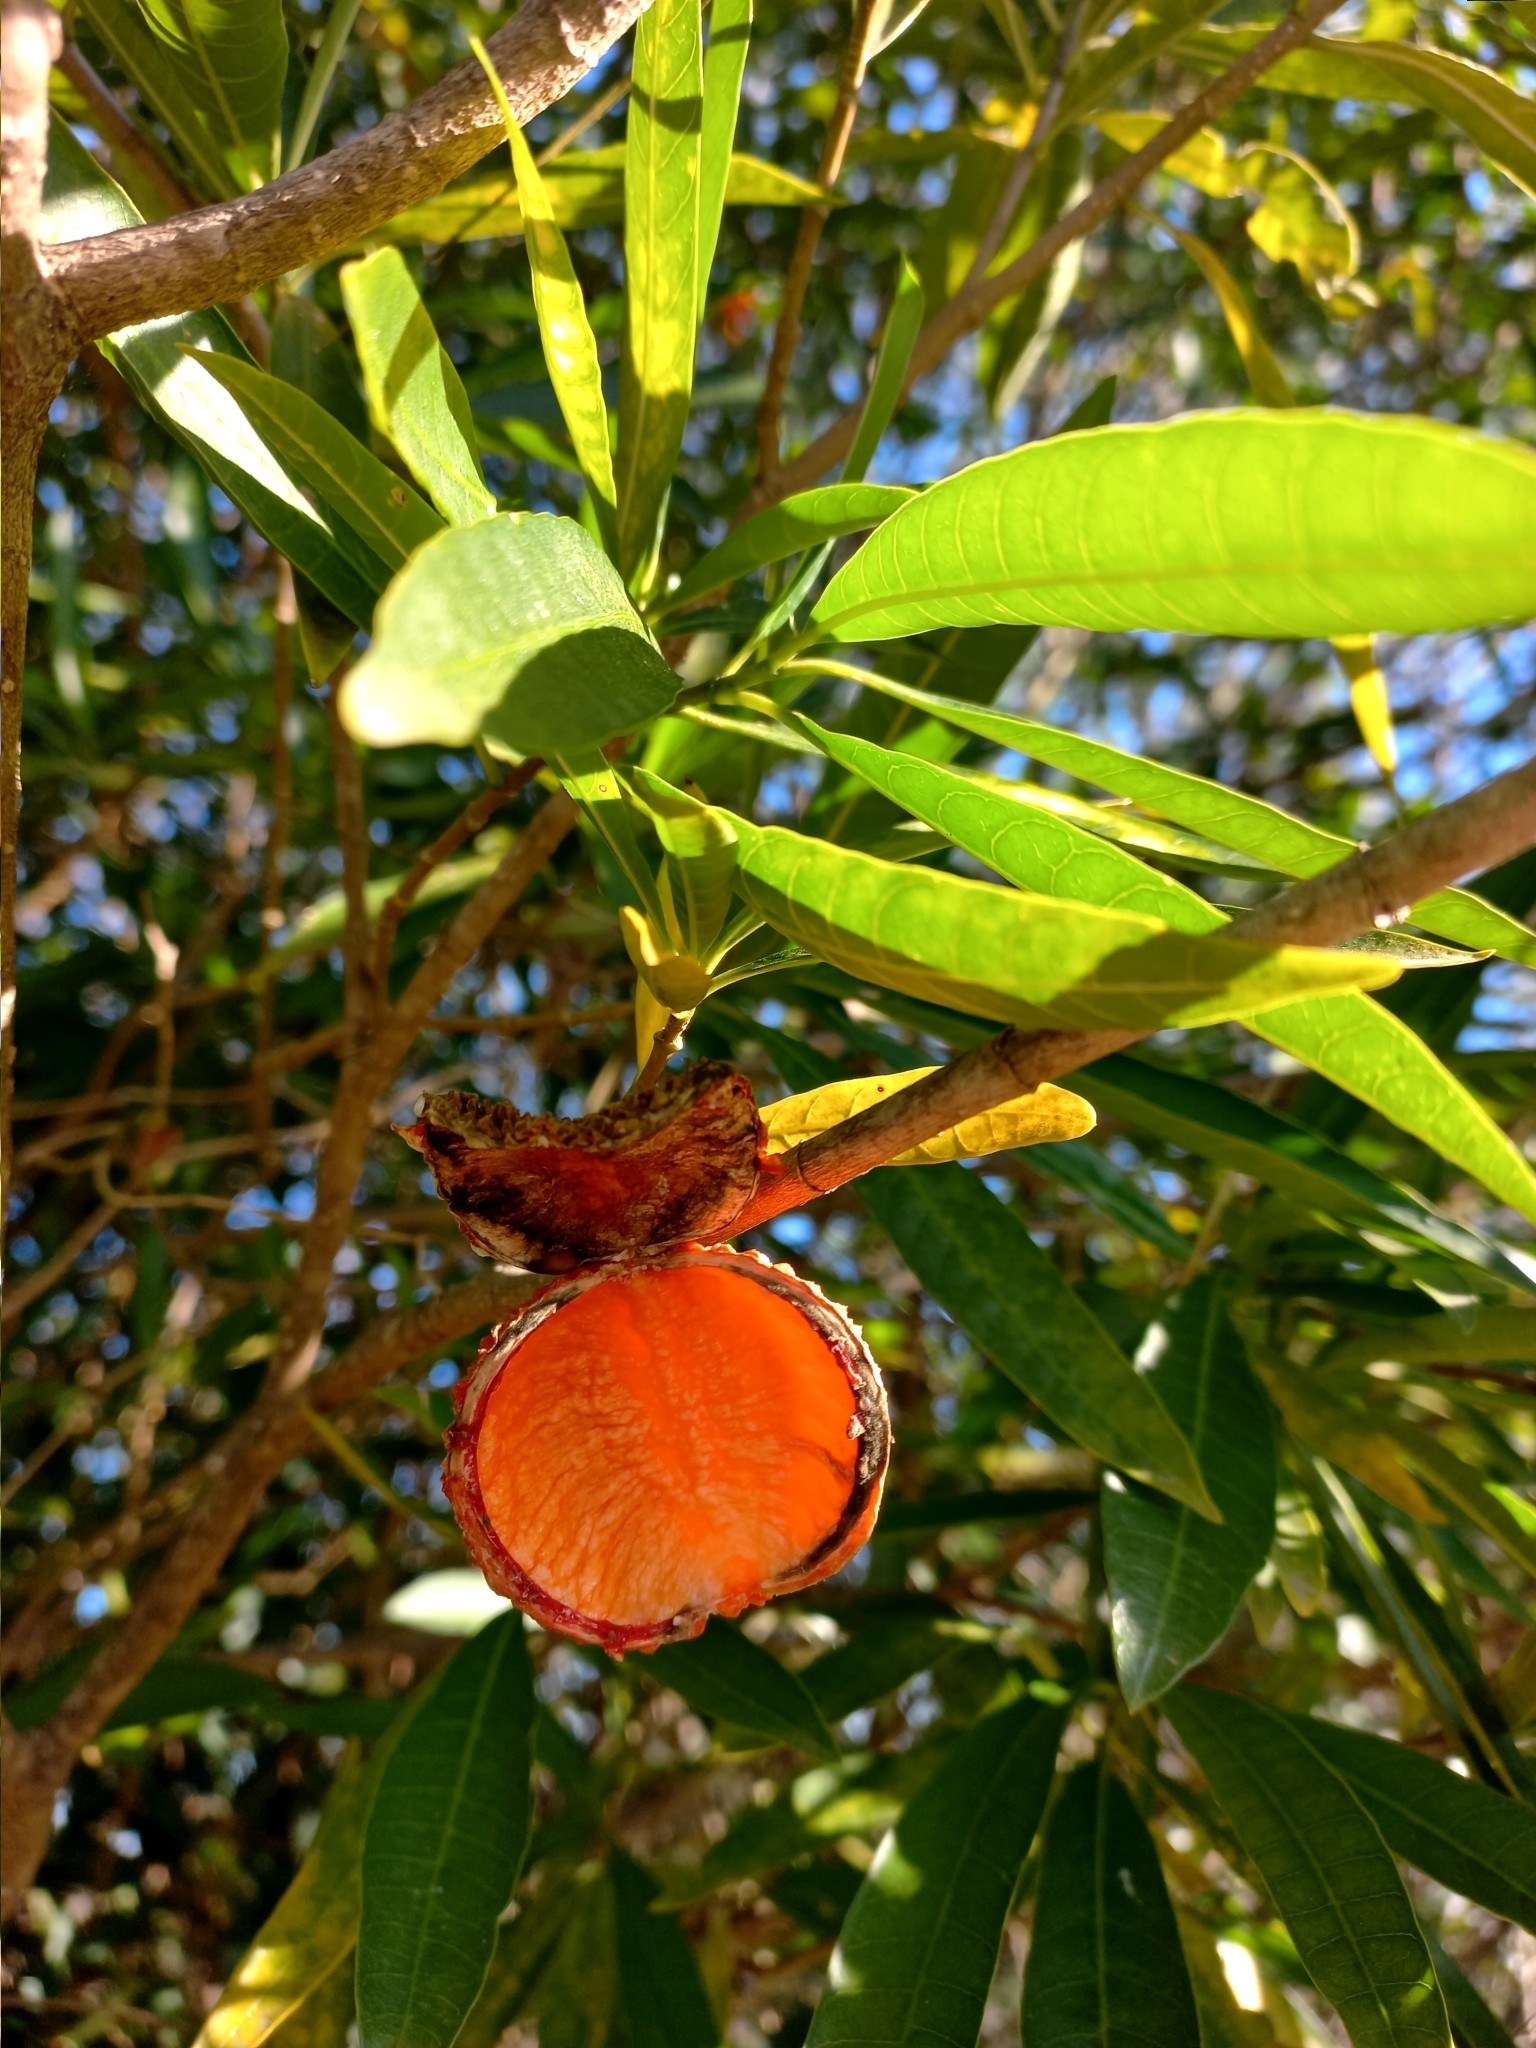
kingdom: Plantae
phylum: Tracheophyta
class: Magnoliopsida
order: Gentianales
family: Apocynaceae
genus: Tabernaemontana
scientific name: Tabernaemontana catharinensis
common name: Pinwheel-flower
